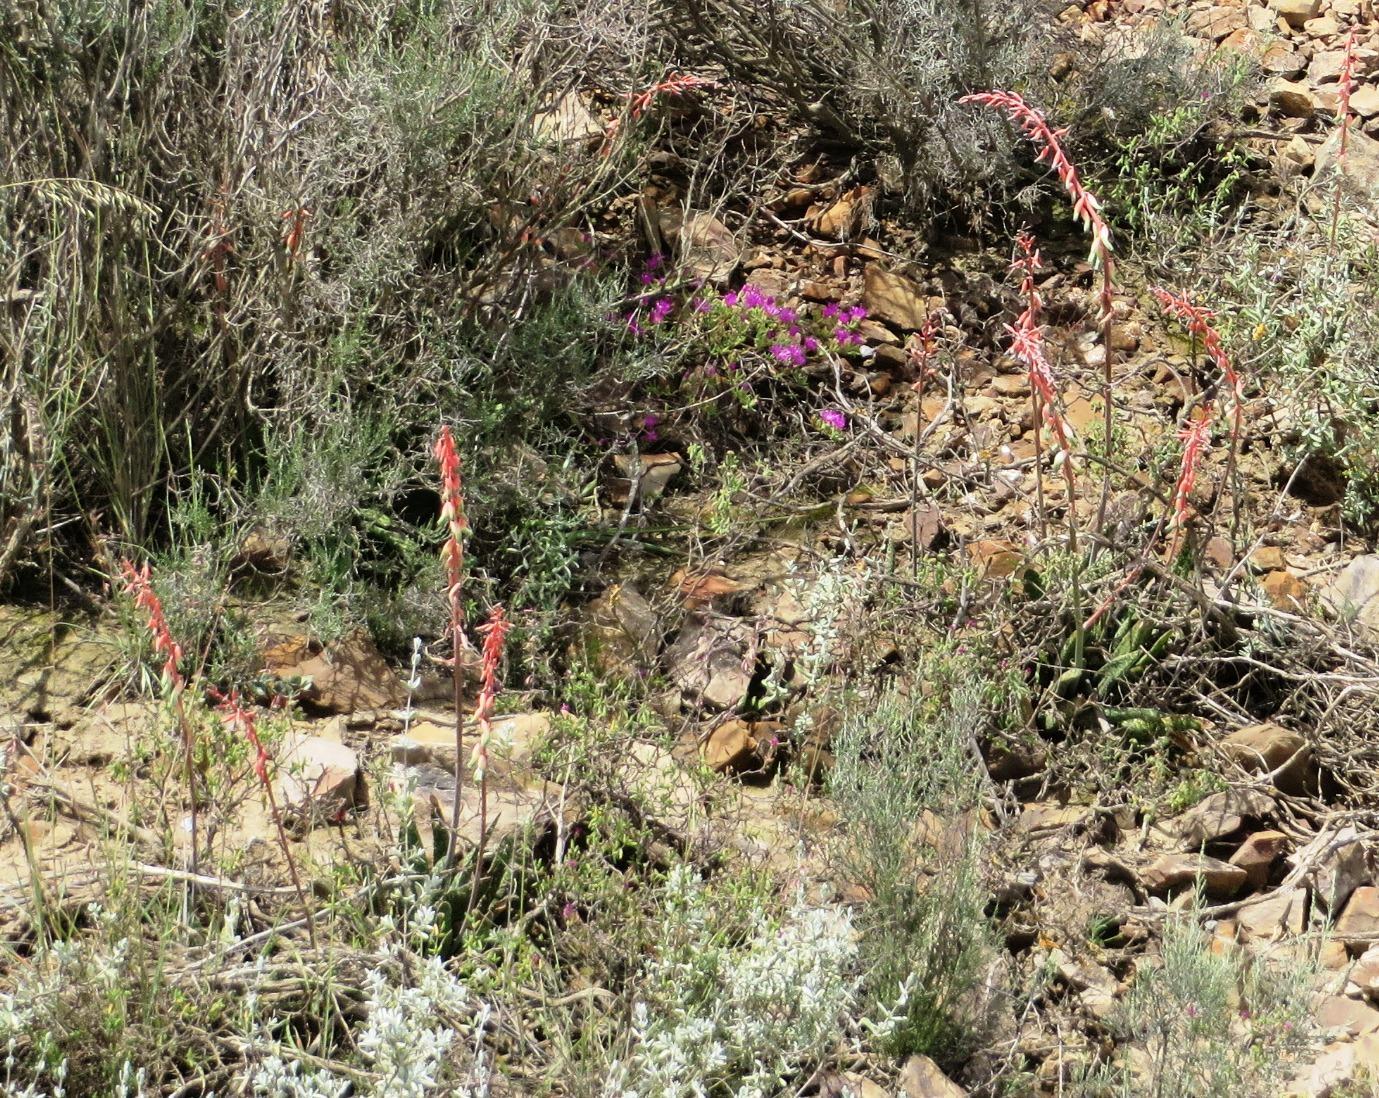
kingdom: Plantae
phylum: Tracheophyta
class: Liliopsida
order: Asparagales
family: Asphodelaceae
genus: Gasteria
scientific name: Gasteria carinata
